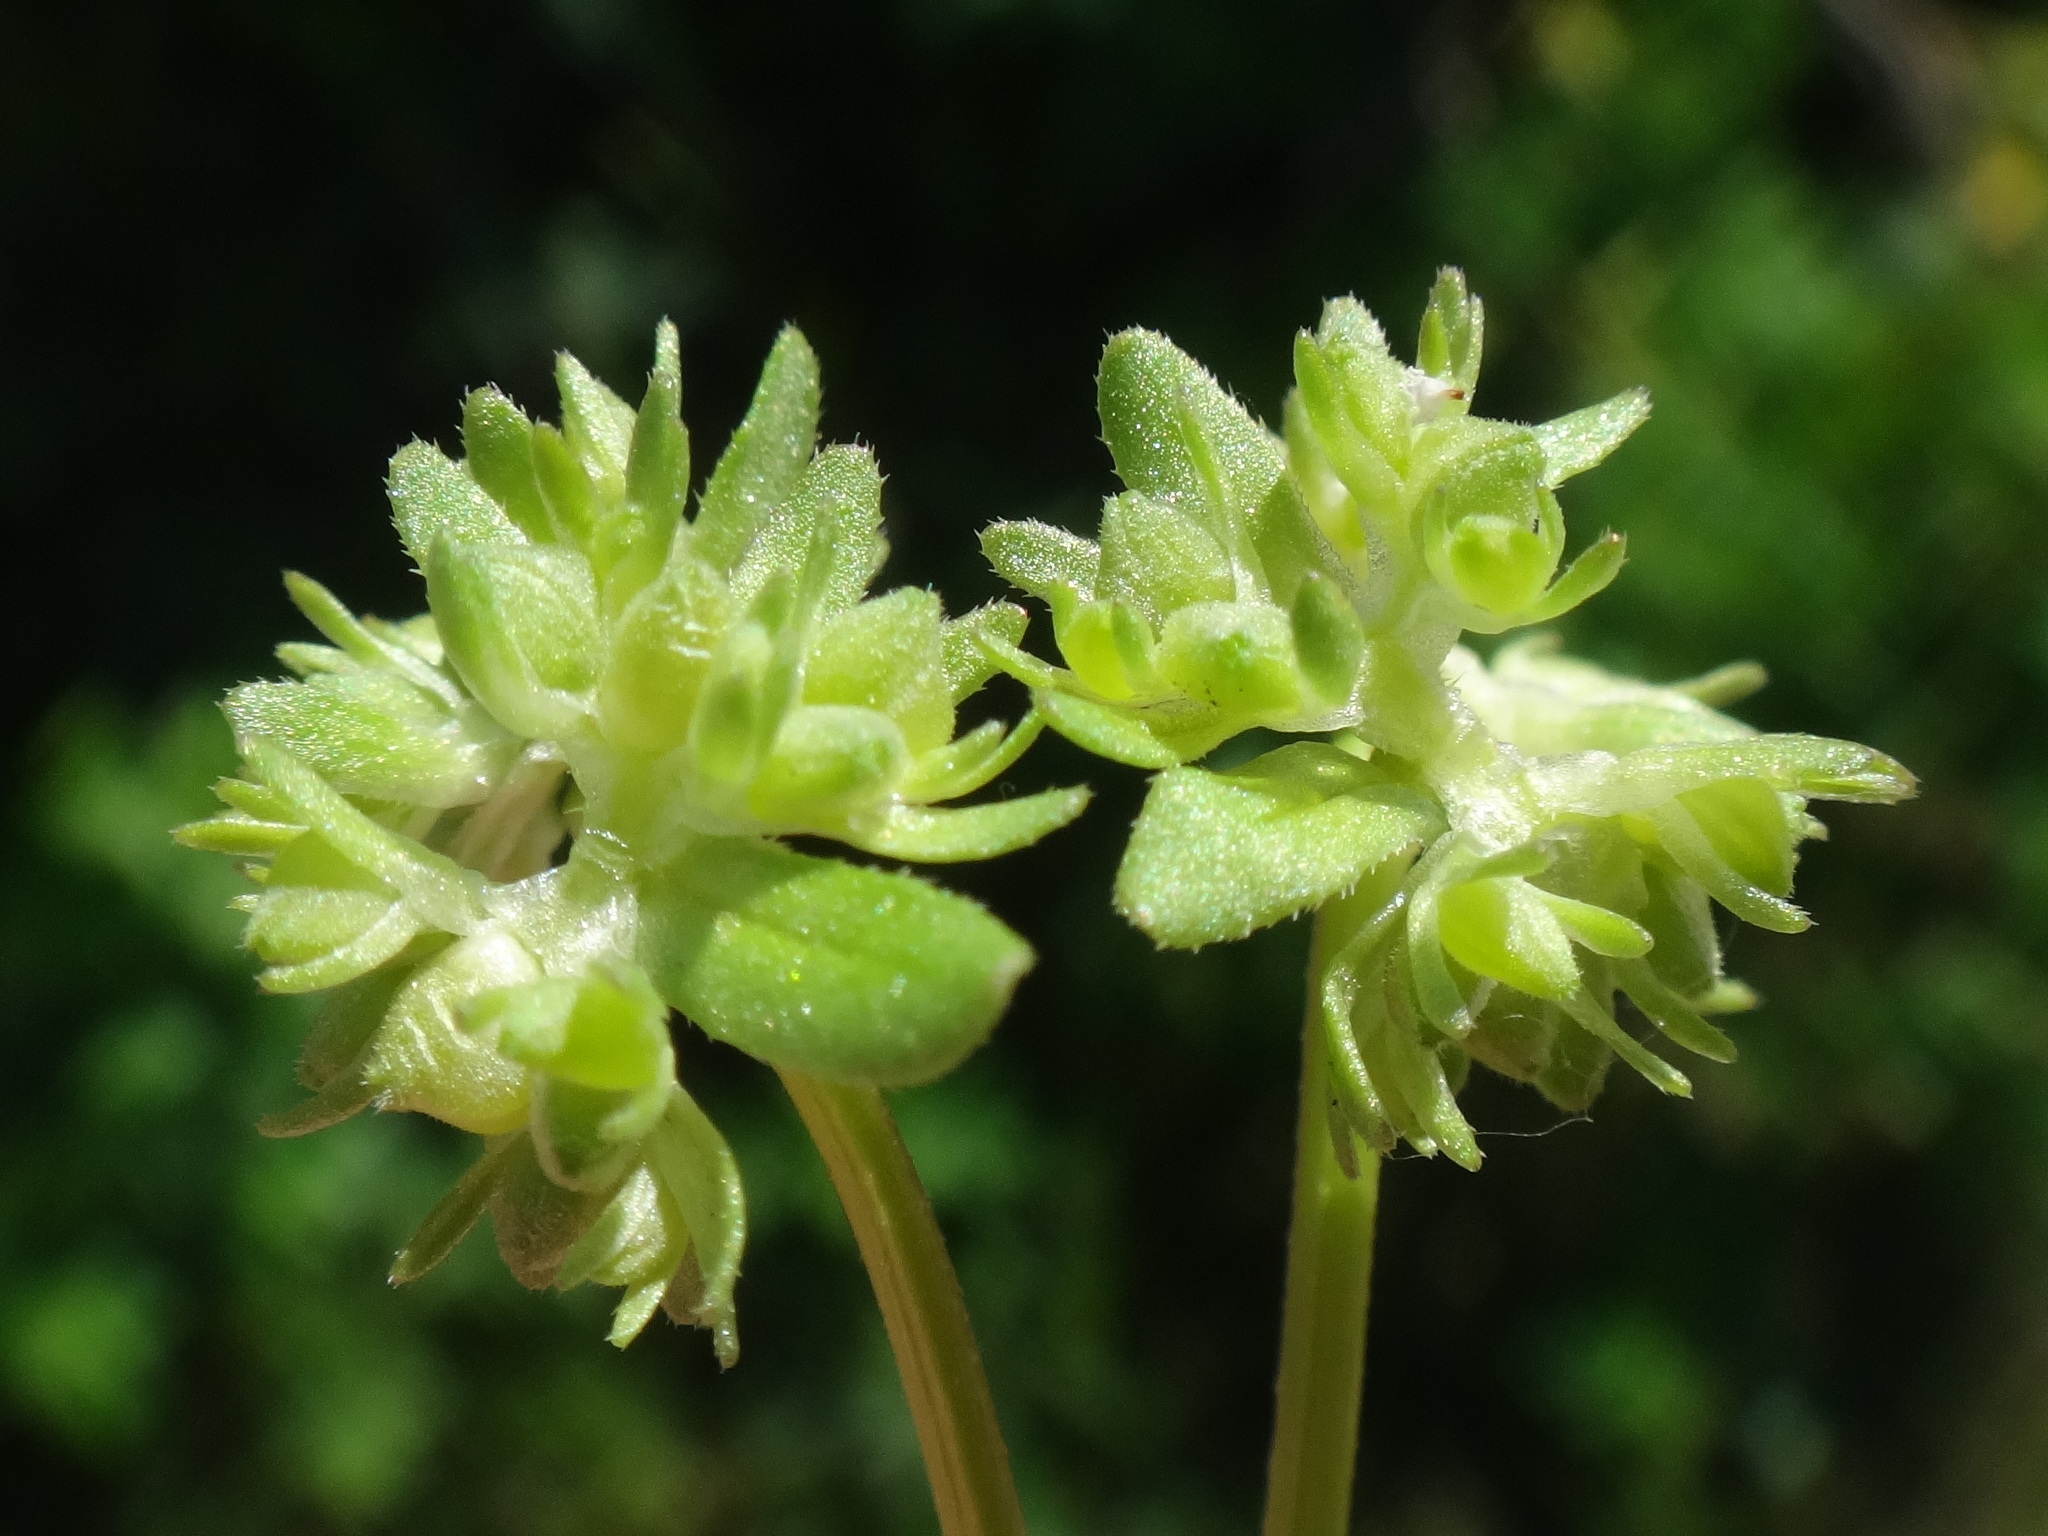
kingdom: Plantae
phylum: Tracheophyta
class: Magnoliopsida
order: Dipsacales
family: Caprifoliaceae
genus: Valerianella
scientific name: Valerianella locusta
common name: Common cornsalad
